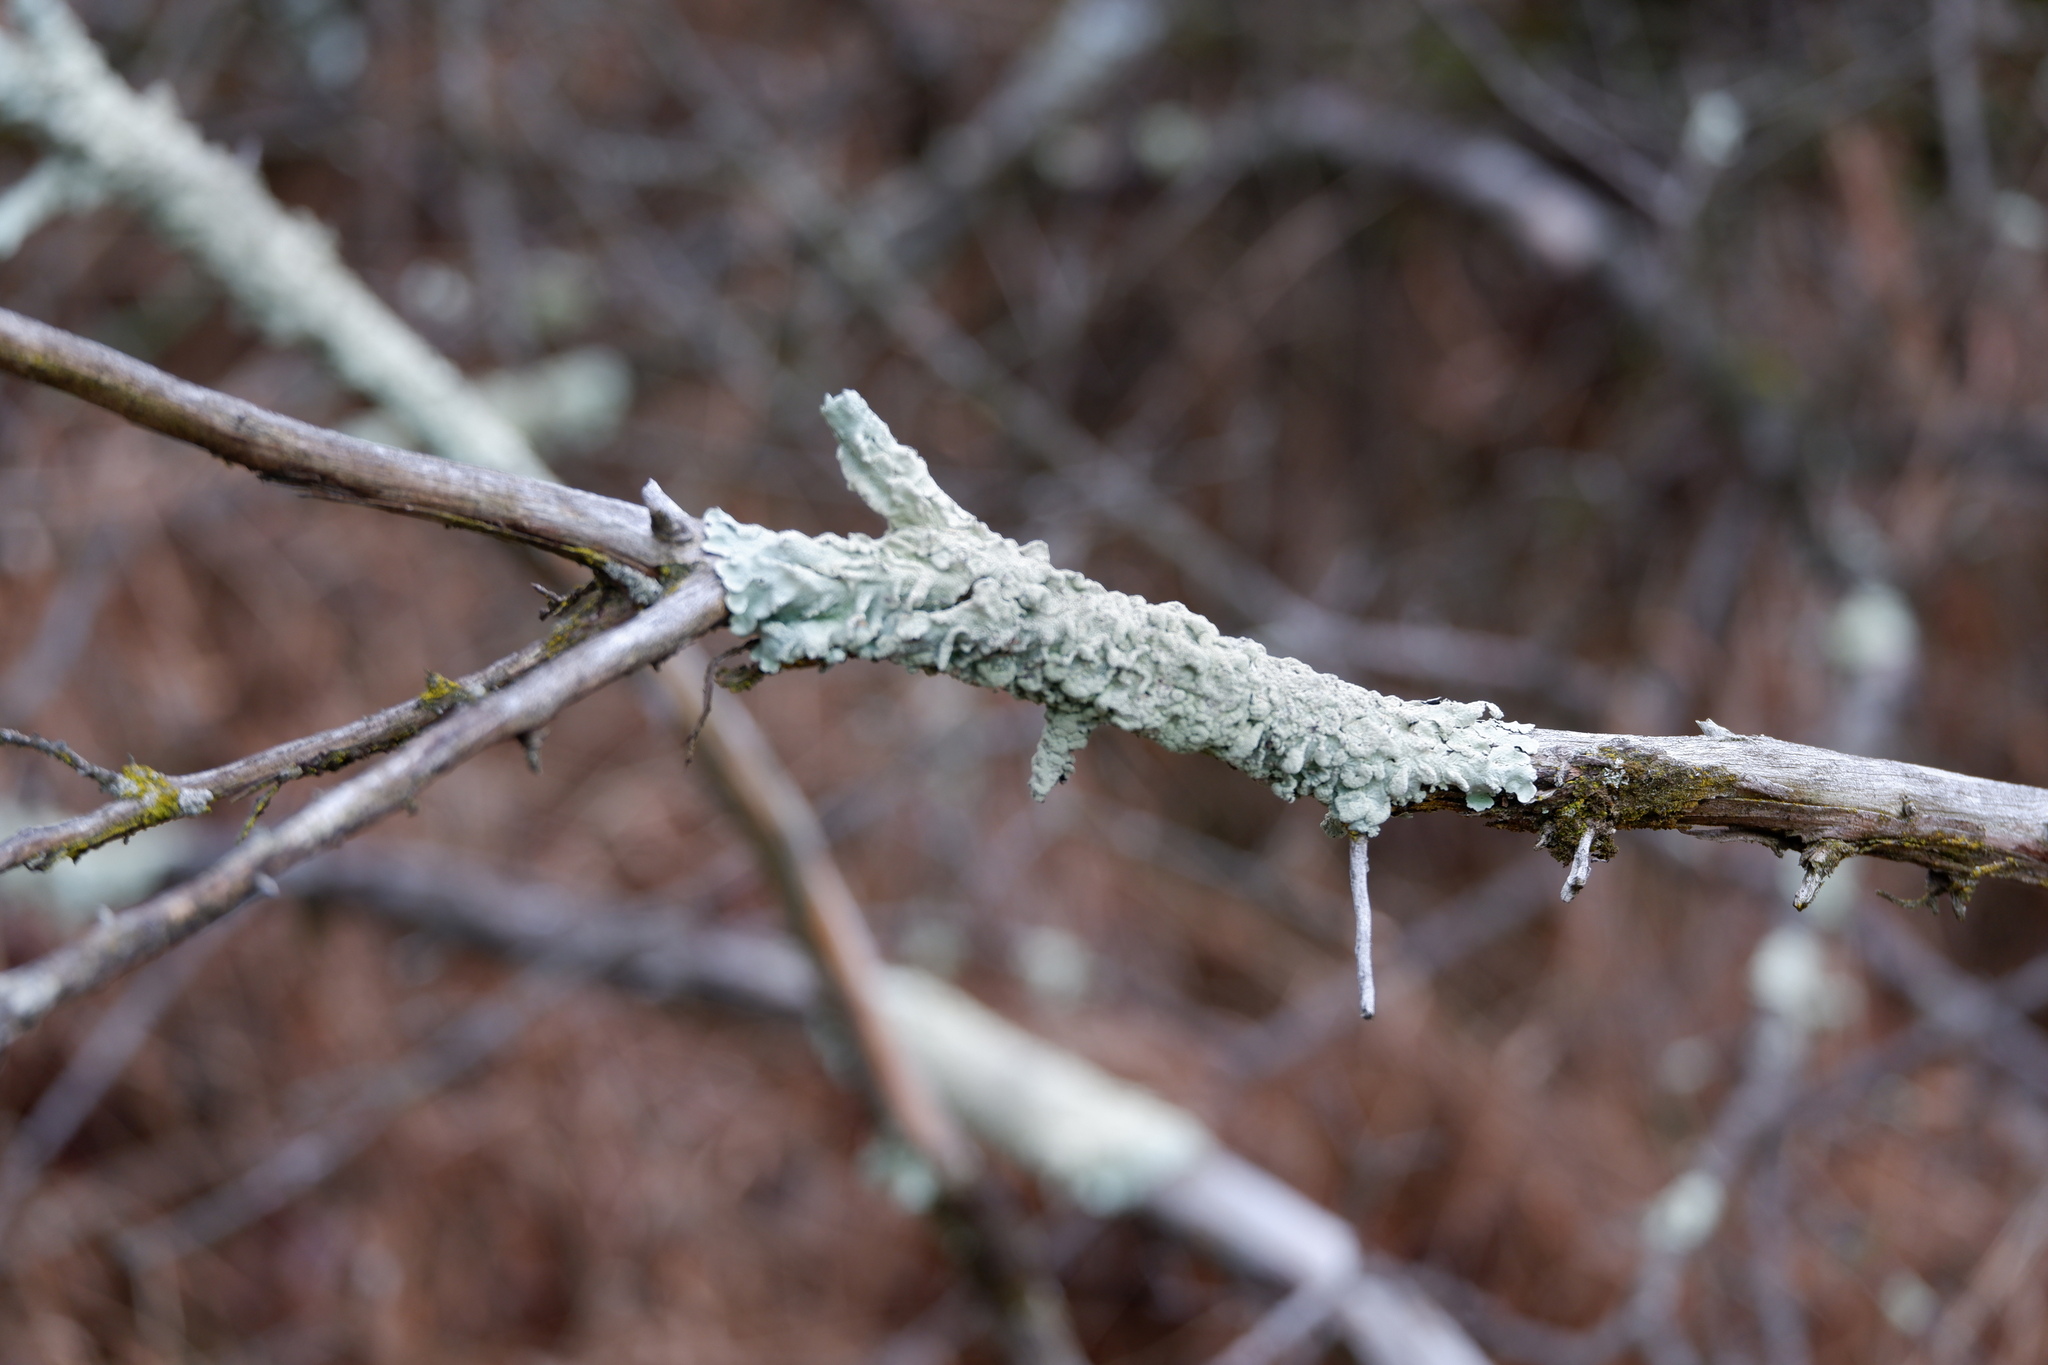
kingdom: Fungi
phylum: Ascomycota
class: Lecanoromycetes
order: Lecanorales
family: Parmeliaceae
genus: Flavoparmelia
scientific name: Flavoparmelia caperata
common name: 40-mile per hour lichen
